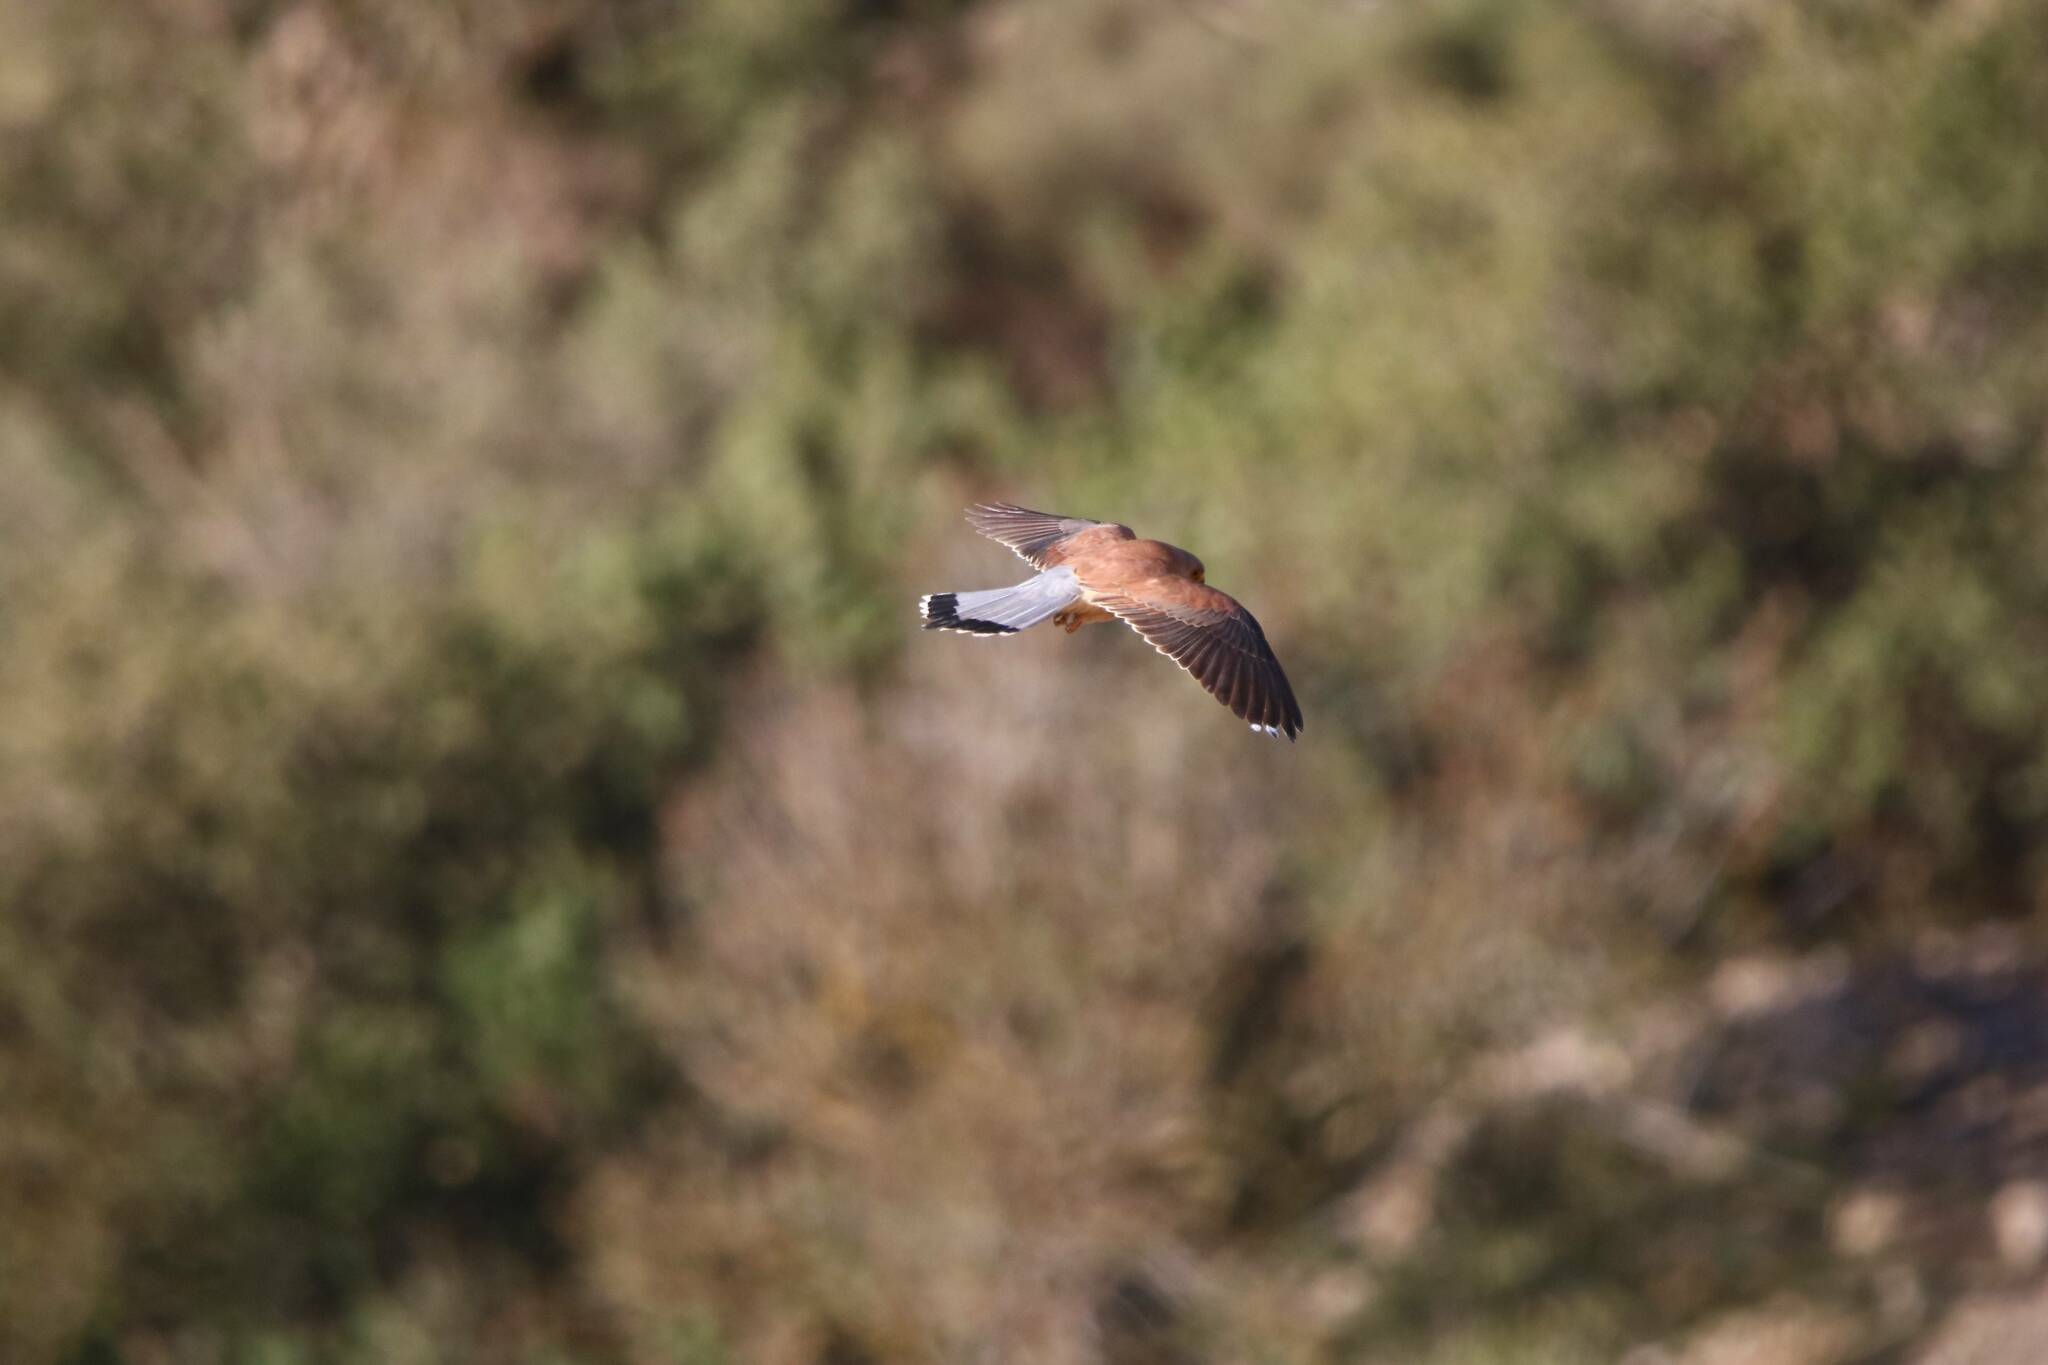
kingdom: Animalia
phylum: Chordata
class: Aves
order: Falconiformes
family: Falconidae
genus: Falco
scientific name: Falco naumanni
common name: Lesser kestrel
